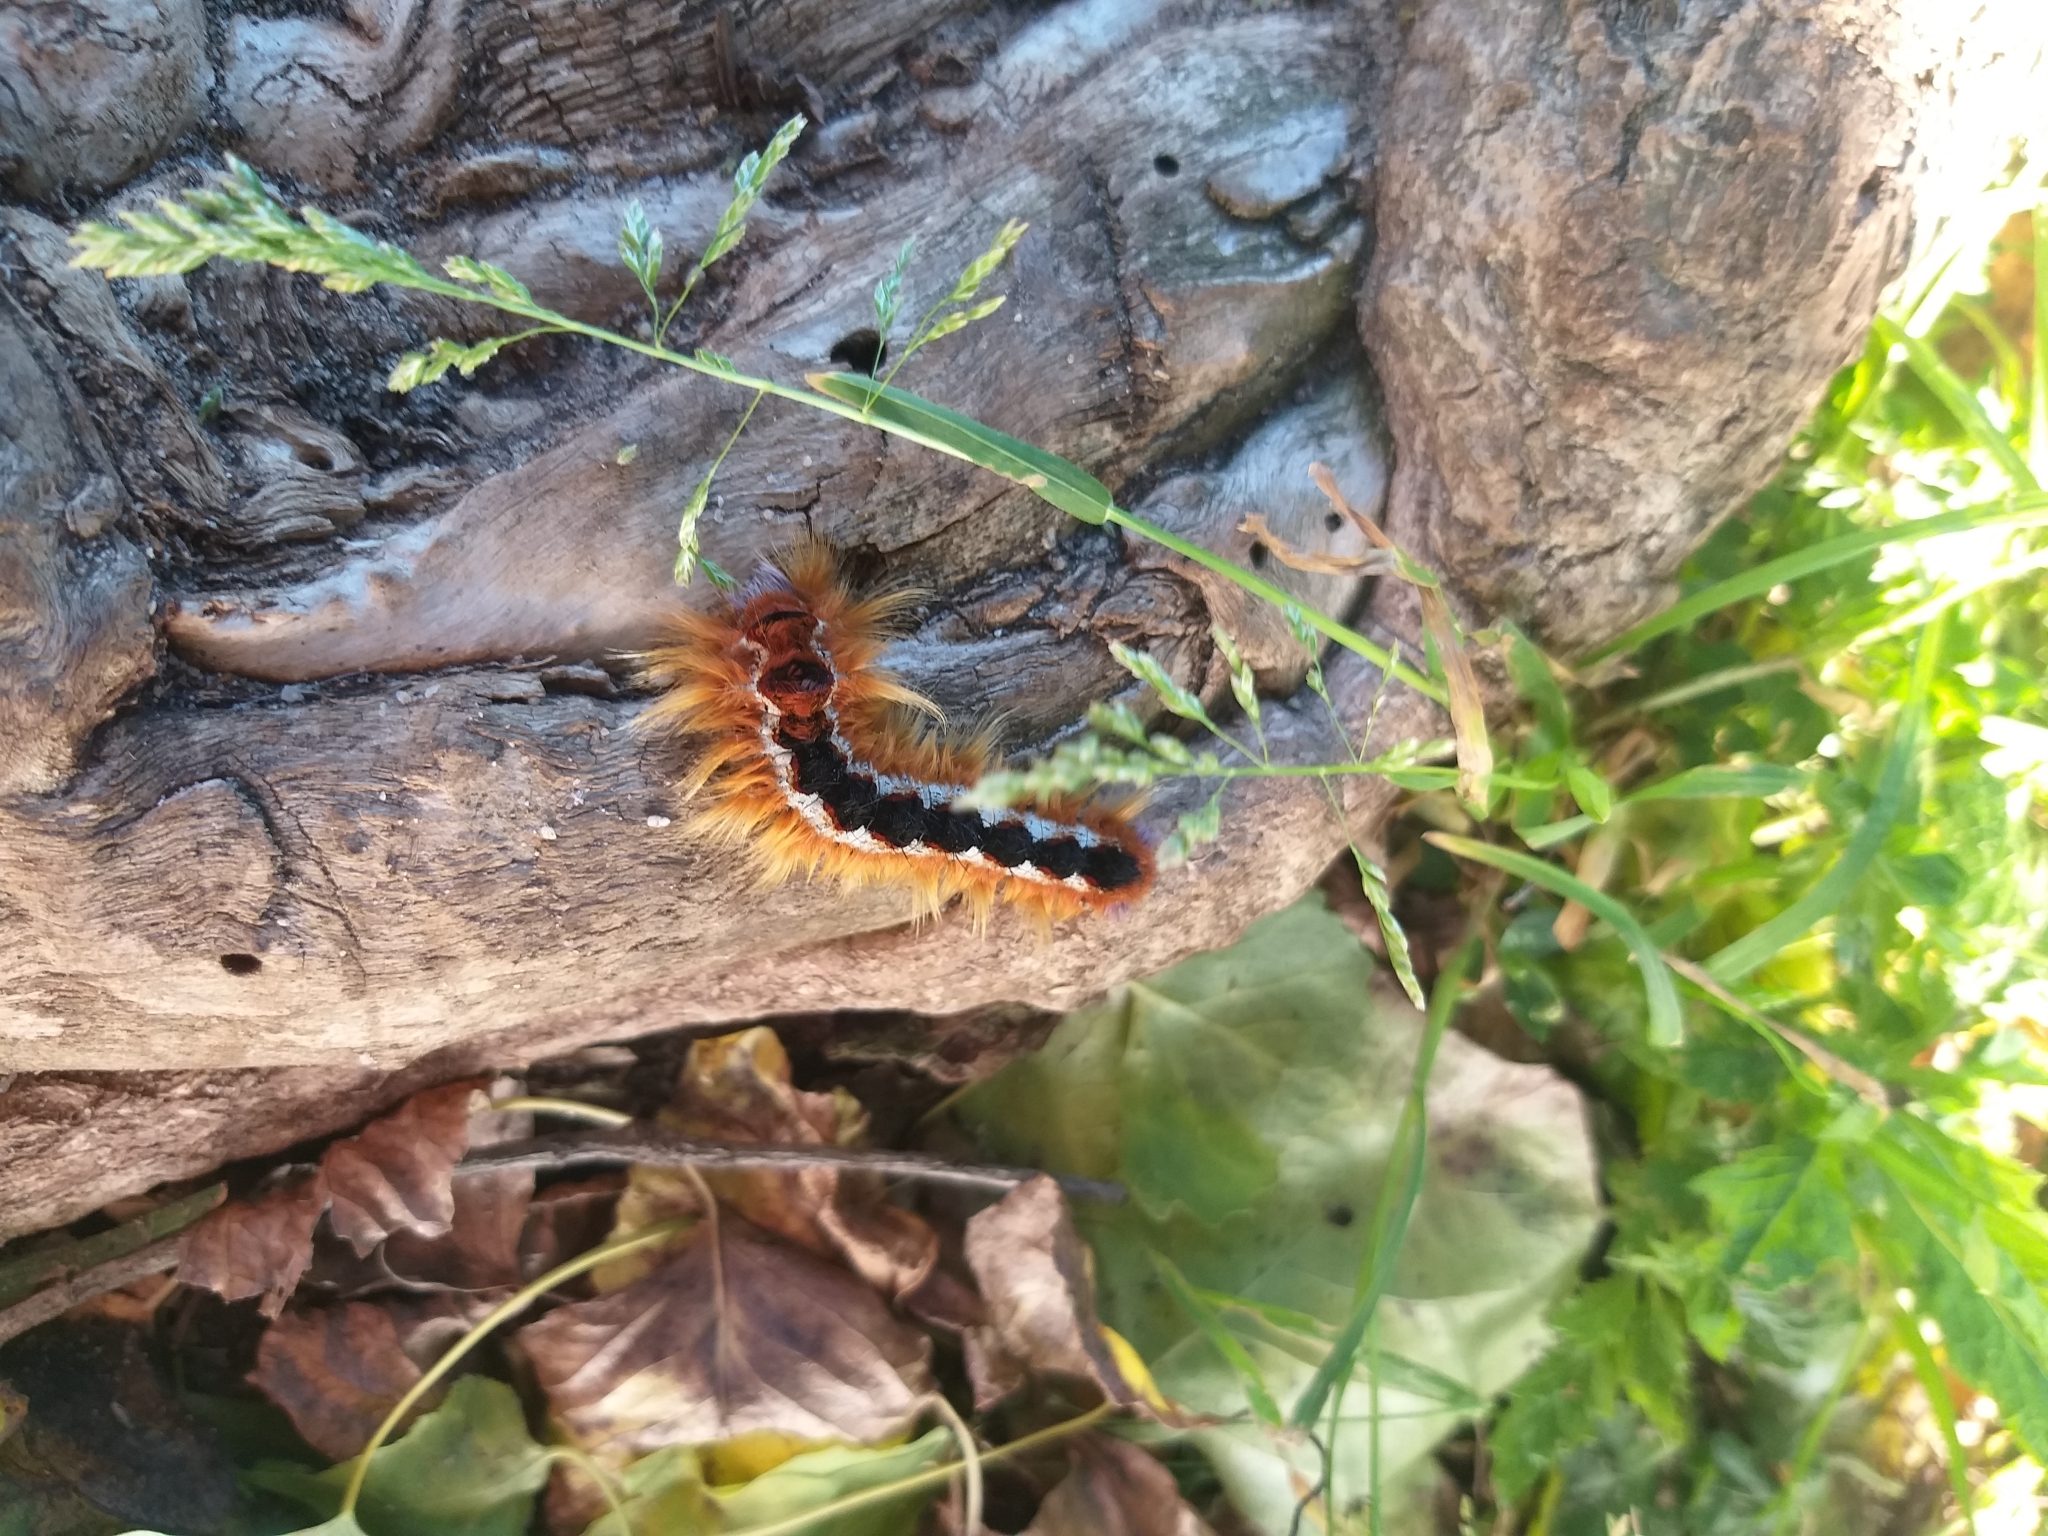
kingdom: Animalia
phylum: Arthropoda
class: Insecta
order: Lepidoptera
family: Lasiocampidae
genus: Eutricha
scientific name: Eutricha capensis
